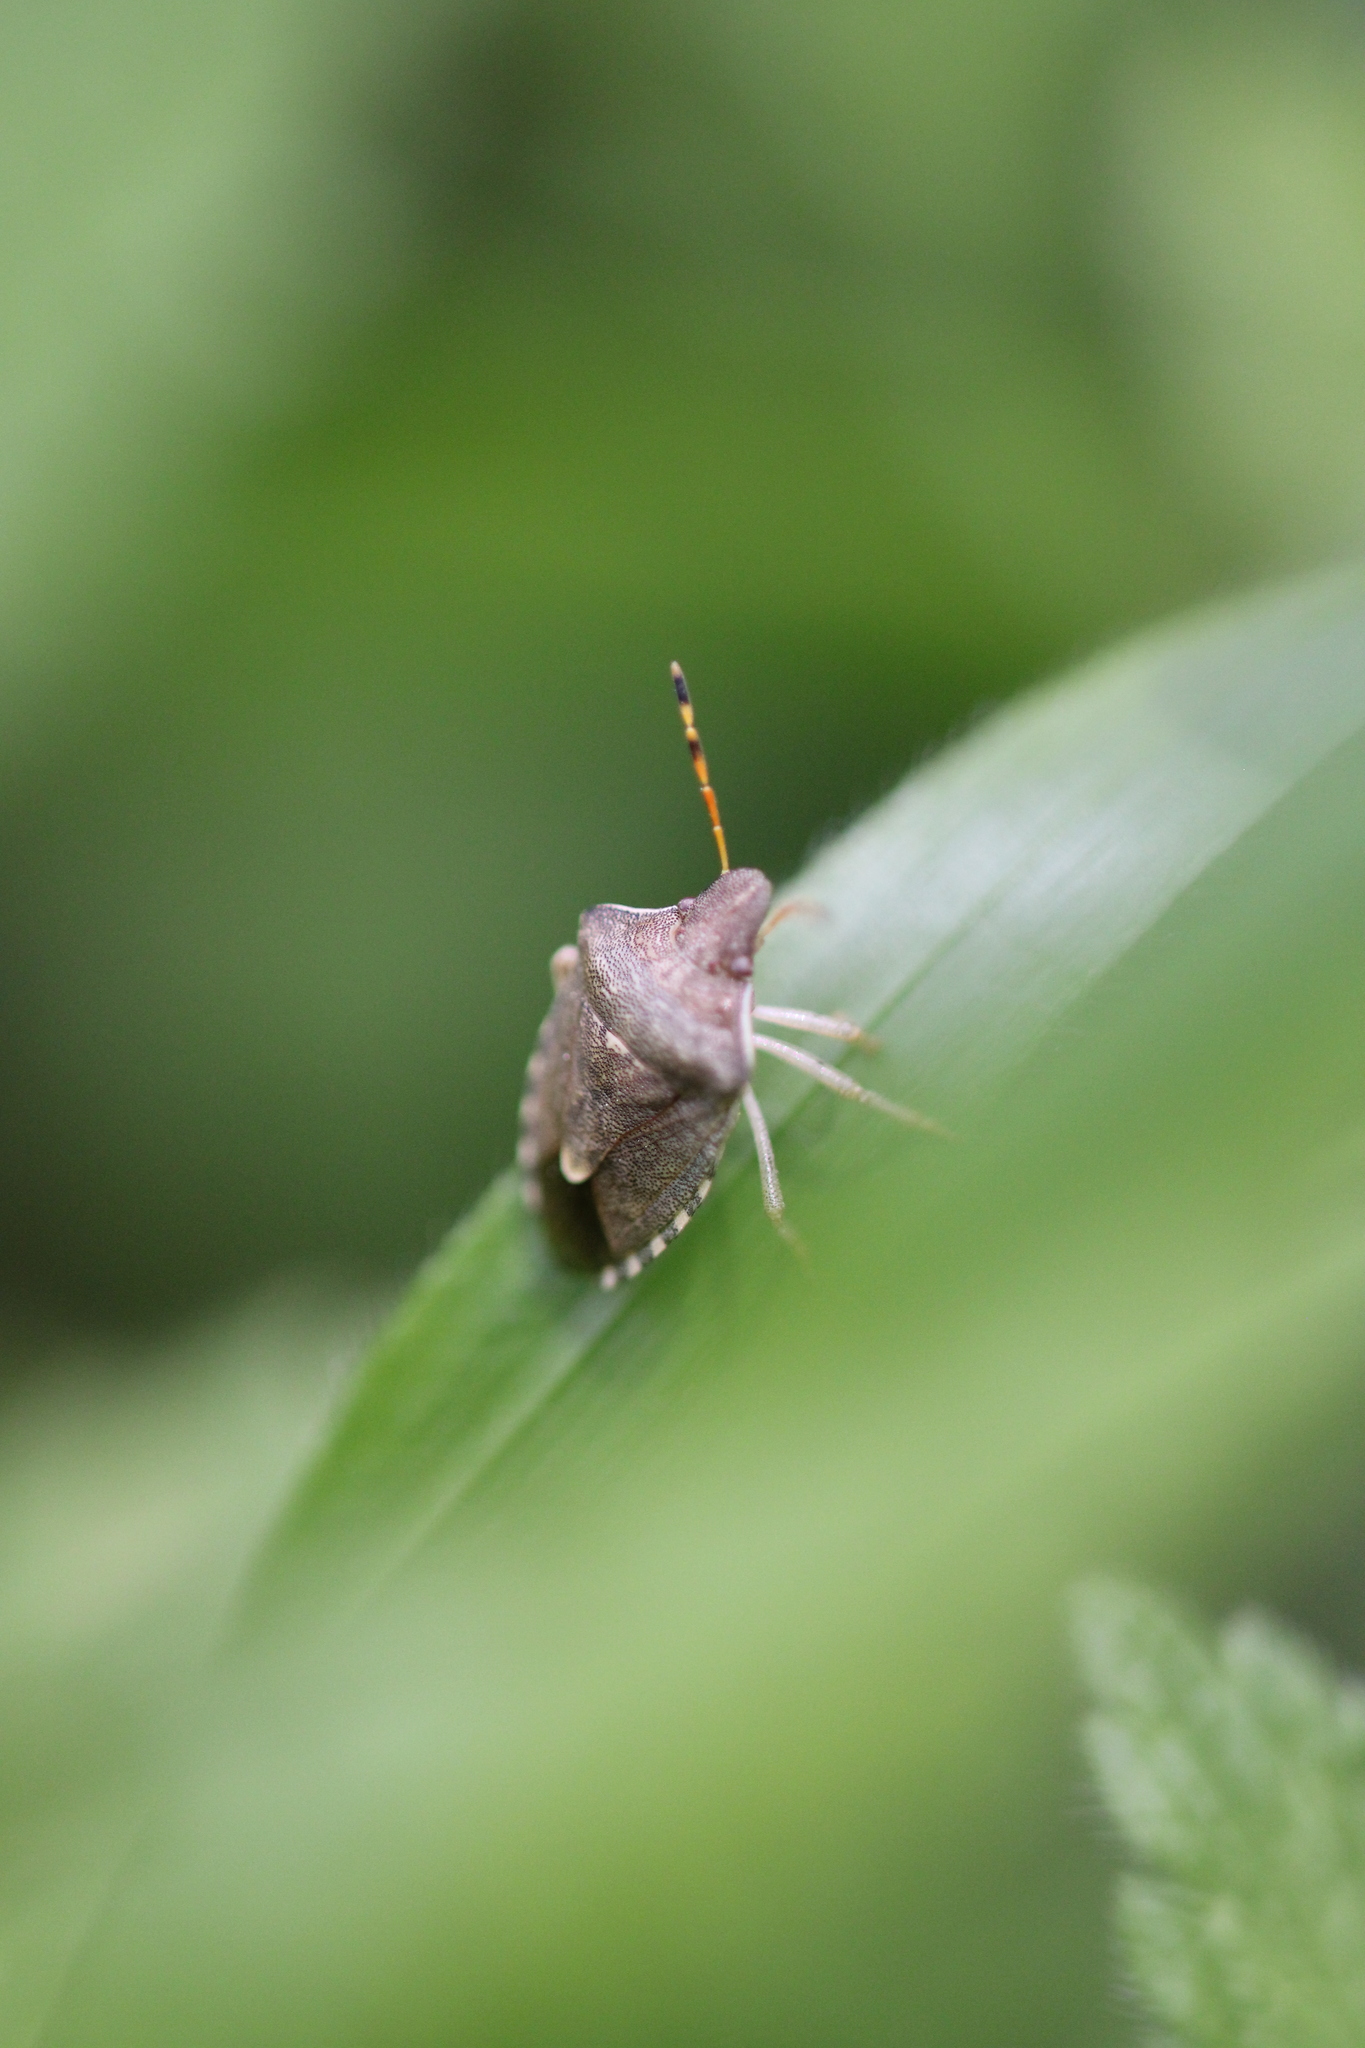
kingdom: Animalia
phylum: Arthropoda
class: Insecta
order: Hemiptera
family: Pentatomidae
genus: Holcostethus
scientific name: Holcostethus strictus
